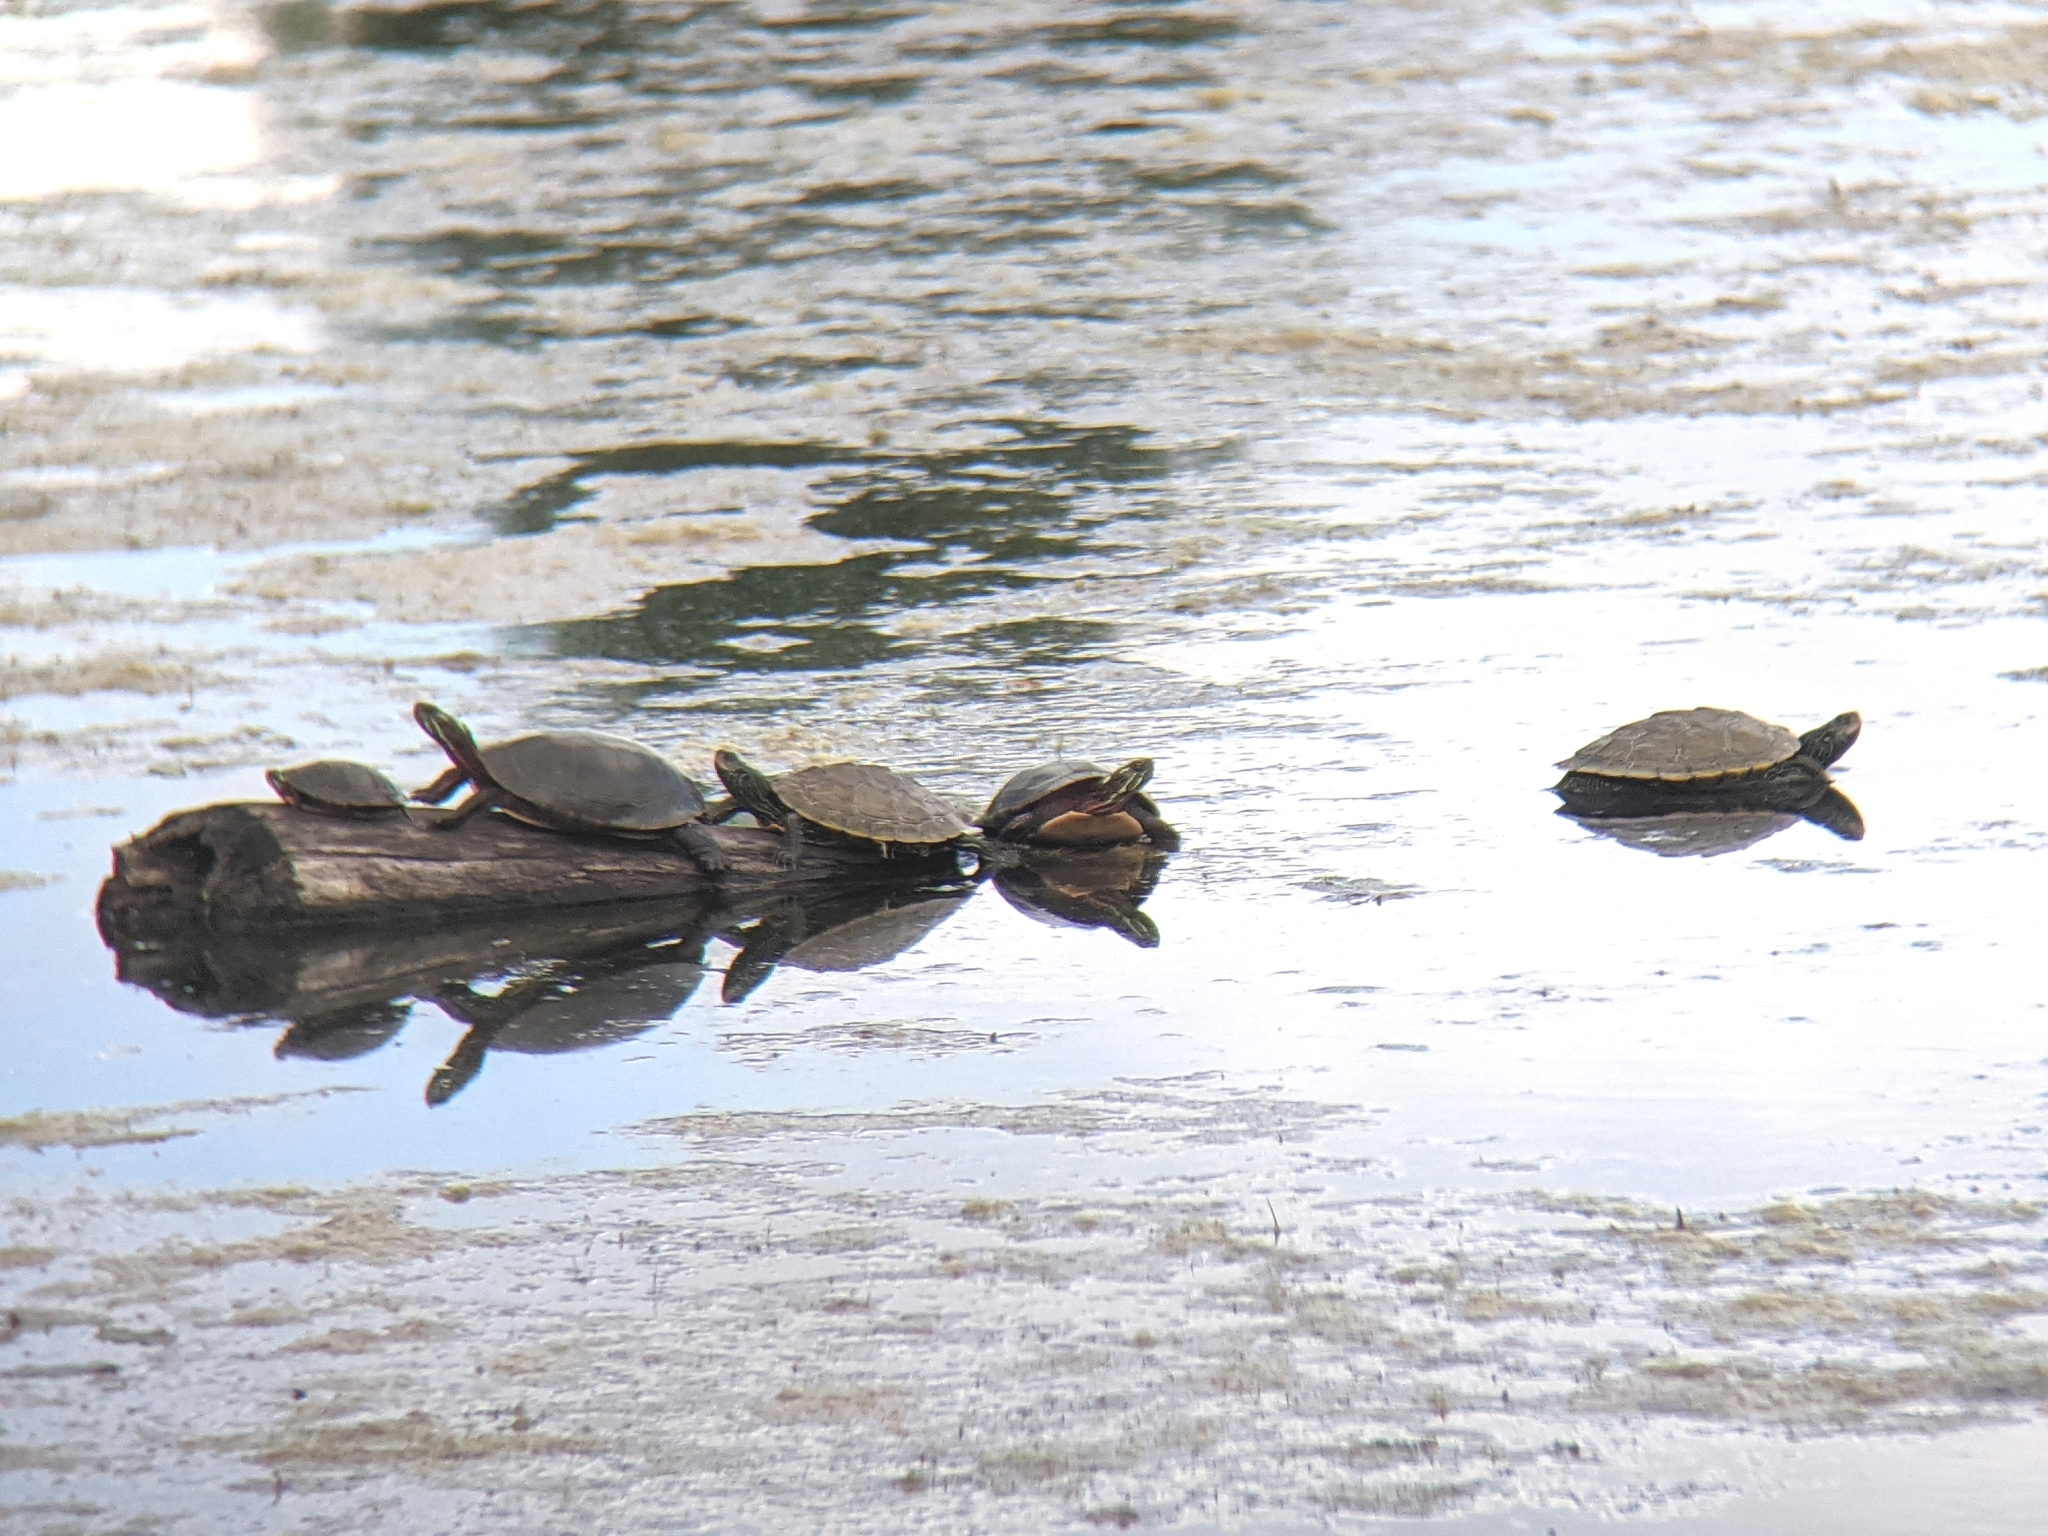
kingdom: Animalia
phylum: Chordata
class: Testudines
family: Emydidae
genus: Graptemys
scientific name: Graptemys geographica
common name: Common map turtle
